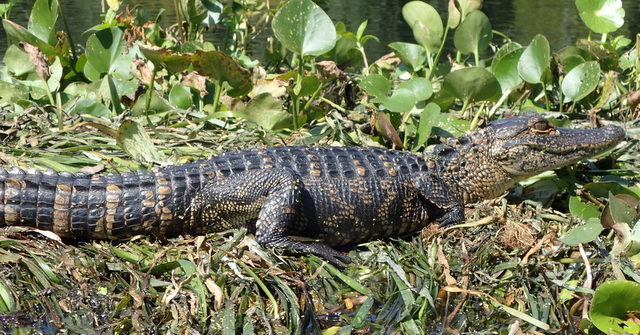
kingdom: Animalia
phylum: Chordata
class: Crocodylia
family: Alligatoridae
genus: Alligator
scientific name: Alligator mississippiensis
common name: American alligator
